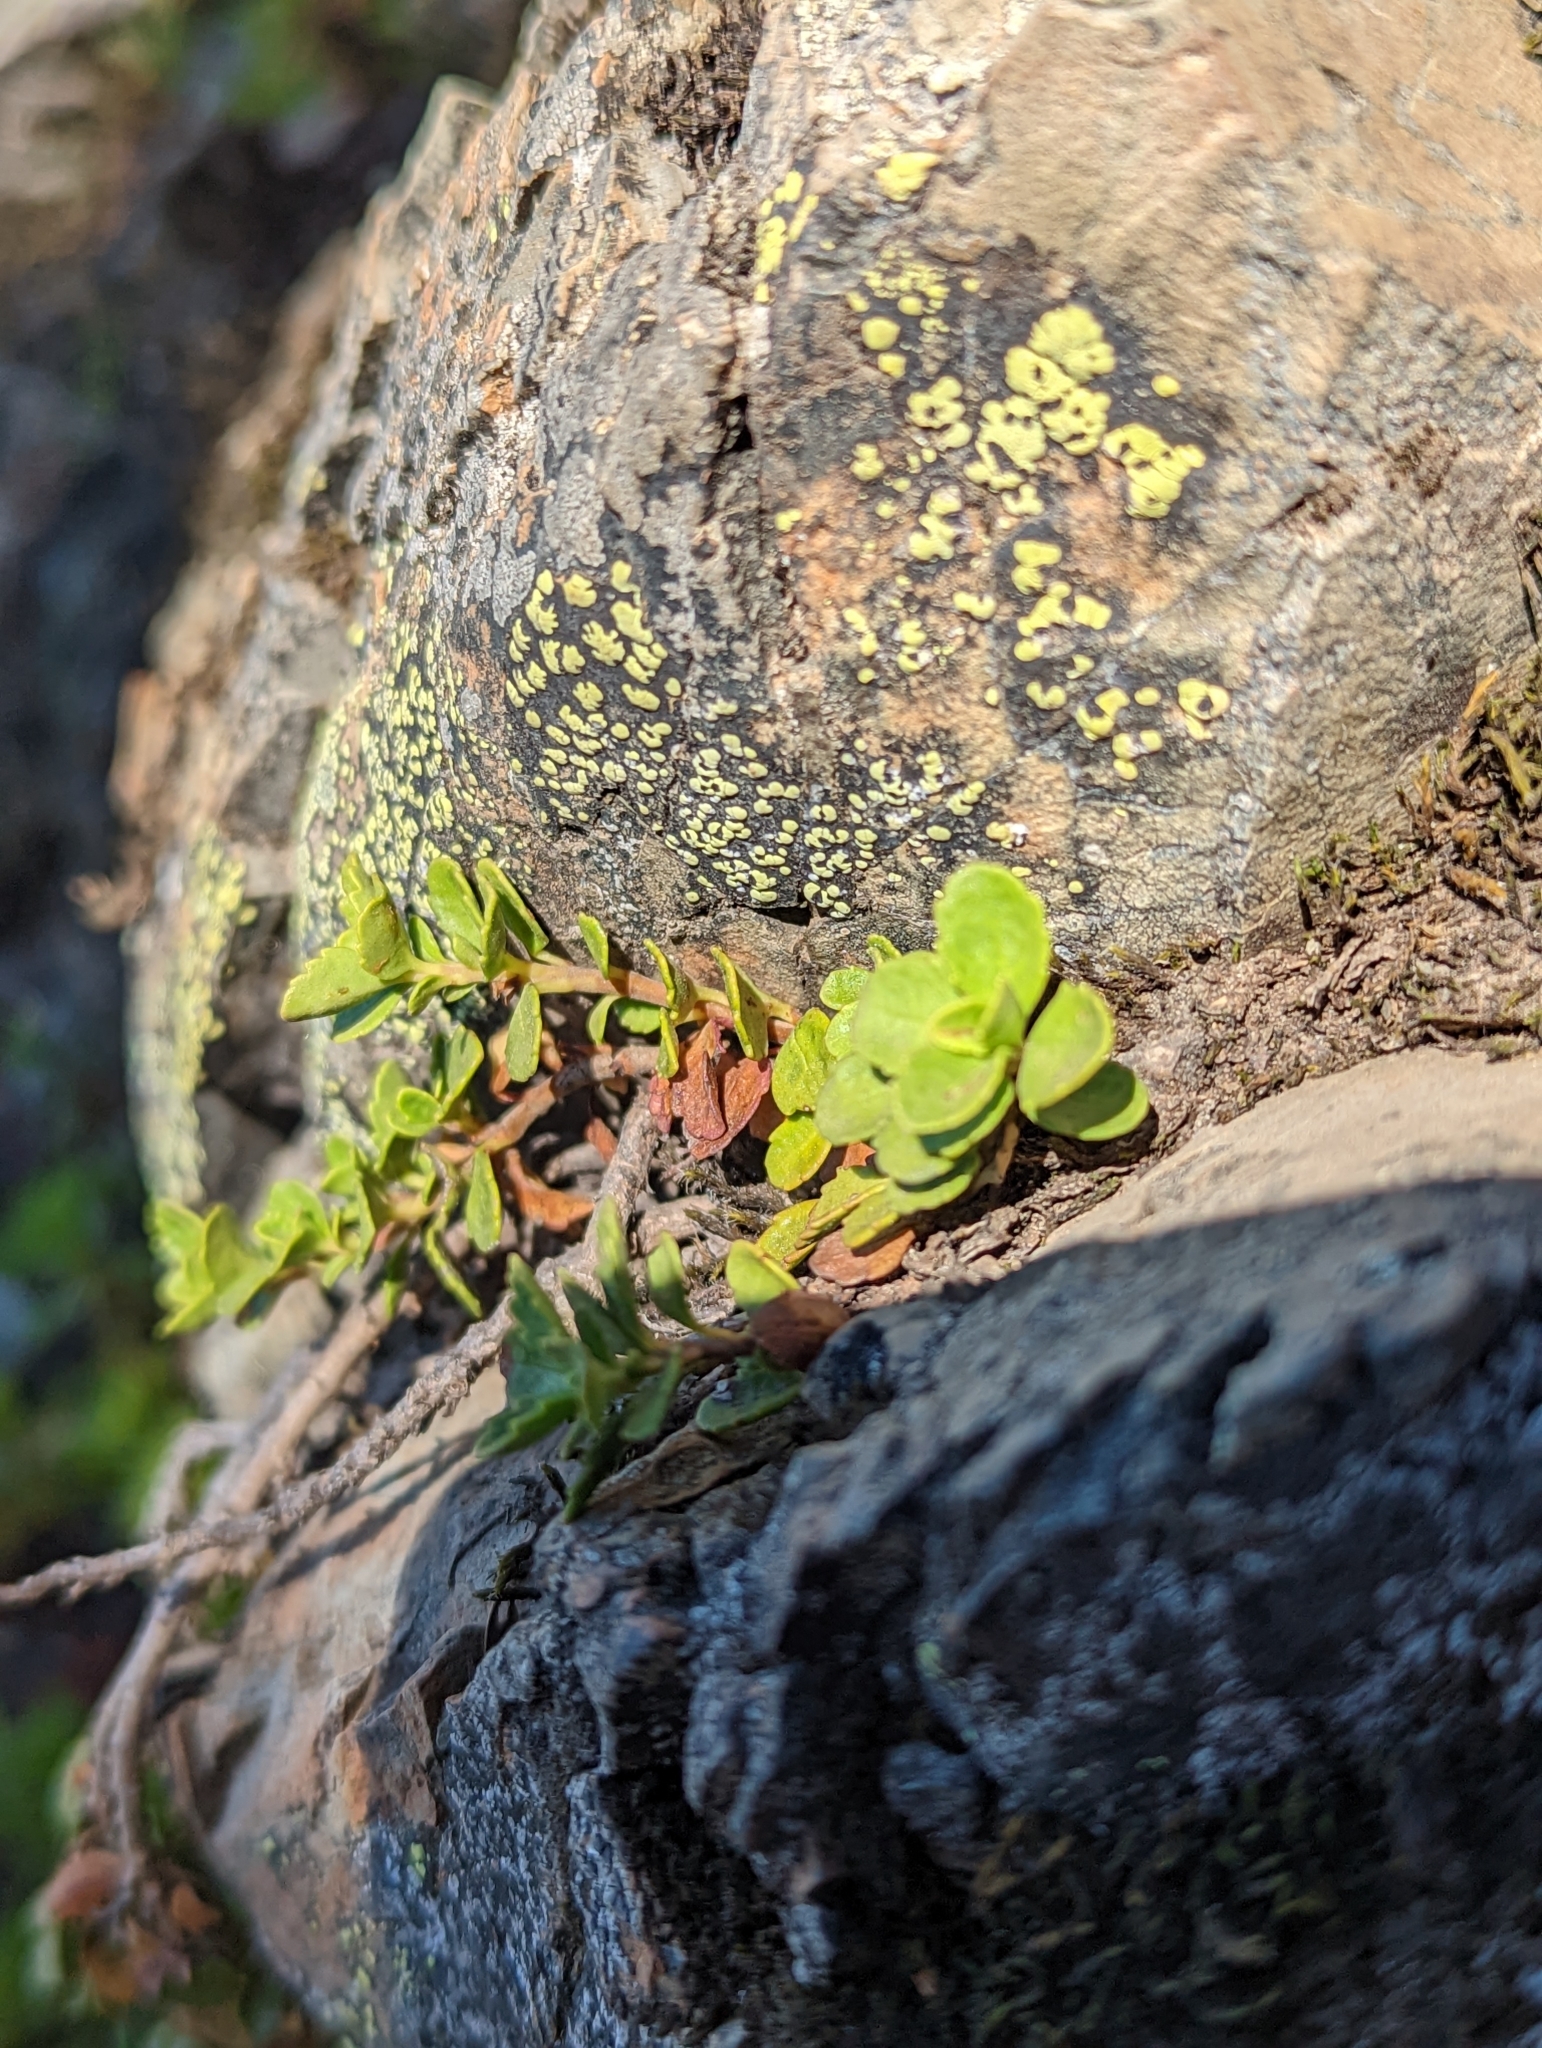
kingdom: Plantae
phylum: Tracheophyta
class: Magnoliopsida
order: Lamiales
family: Plantaginaceae
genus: Penstemon
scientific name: Penstemon davidsonii
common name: Davidson's penstemon
